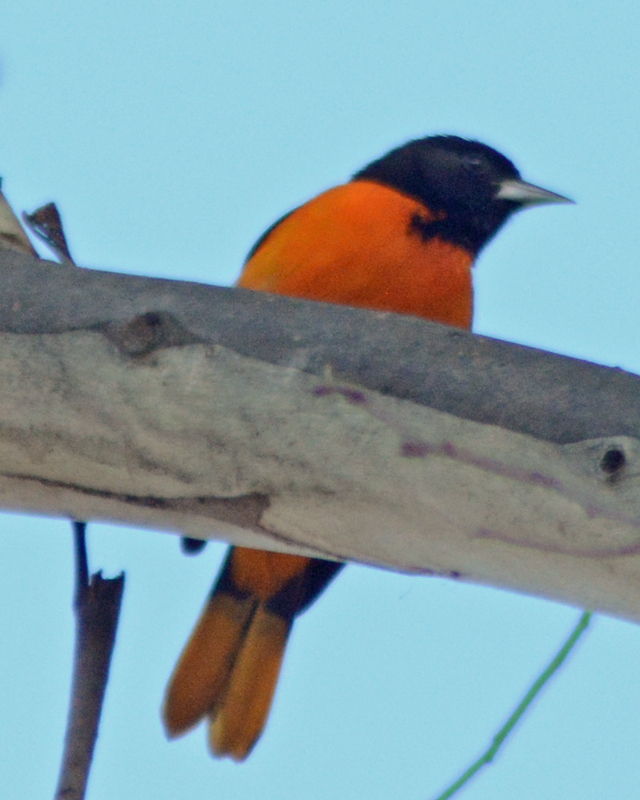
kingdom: Animalia
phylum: Chordata
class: Aves
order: Passeriformes
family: Icteridae
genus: Icterus
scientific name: Icterus galbula
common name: Baltimore oriole
